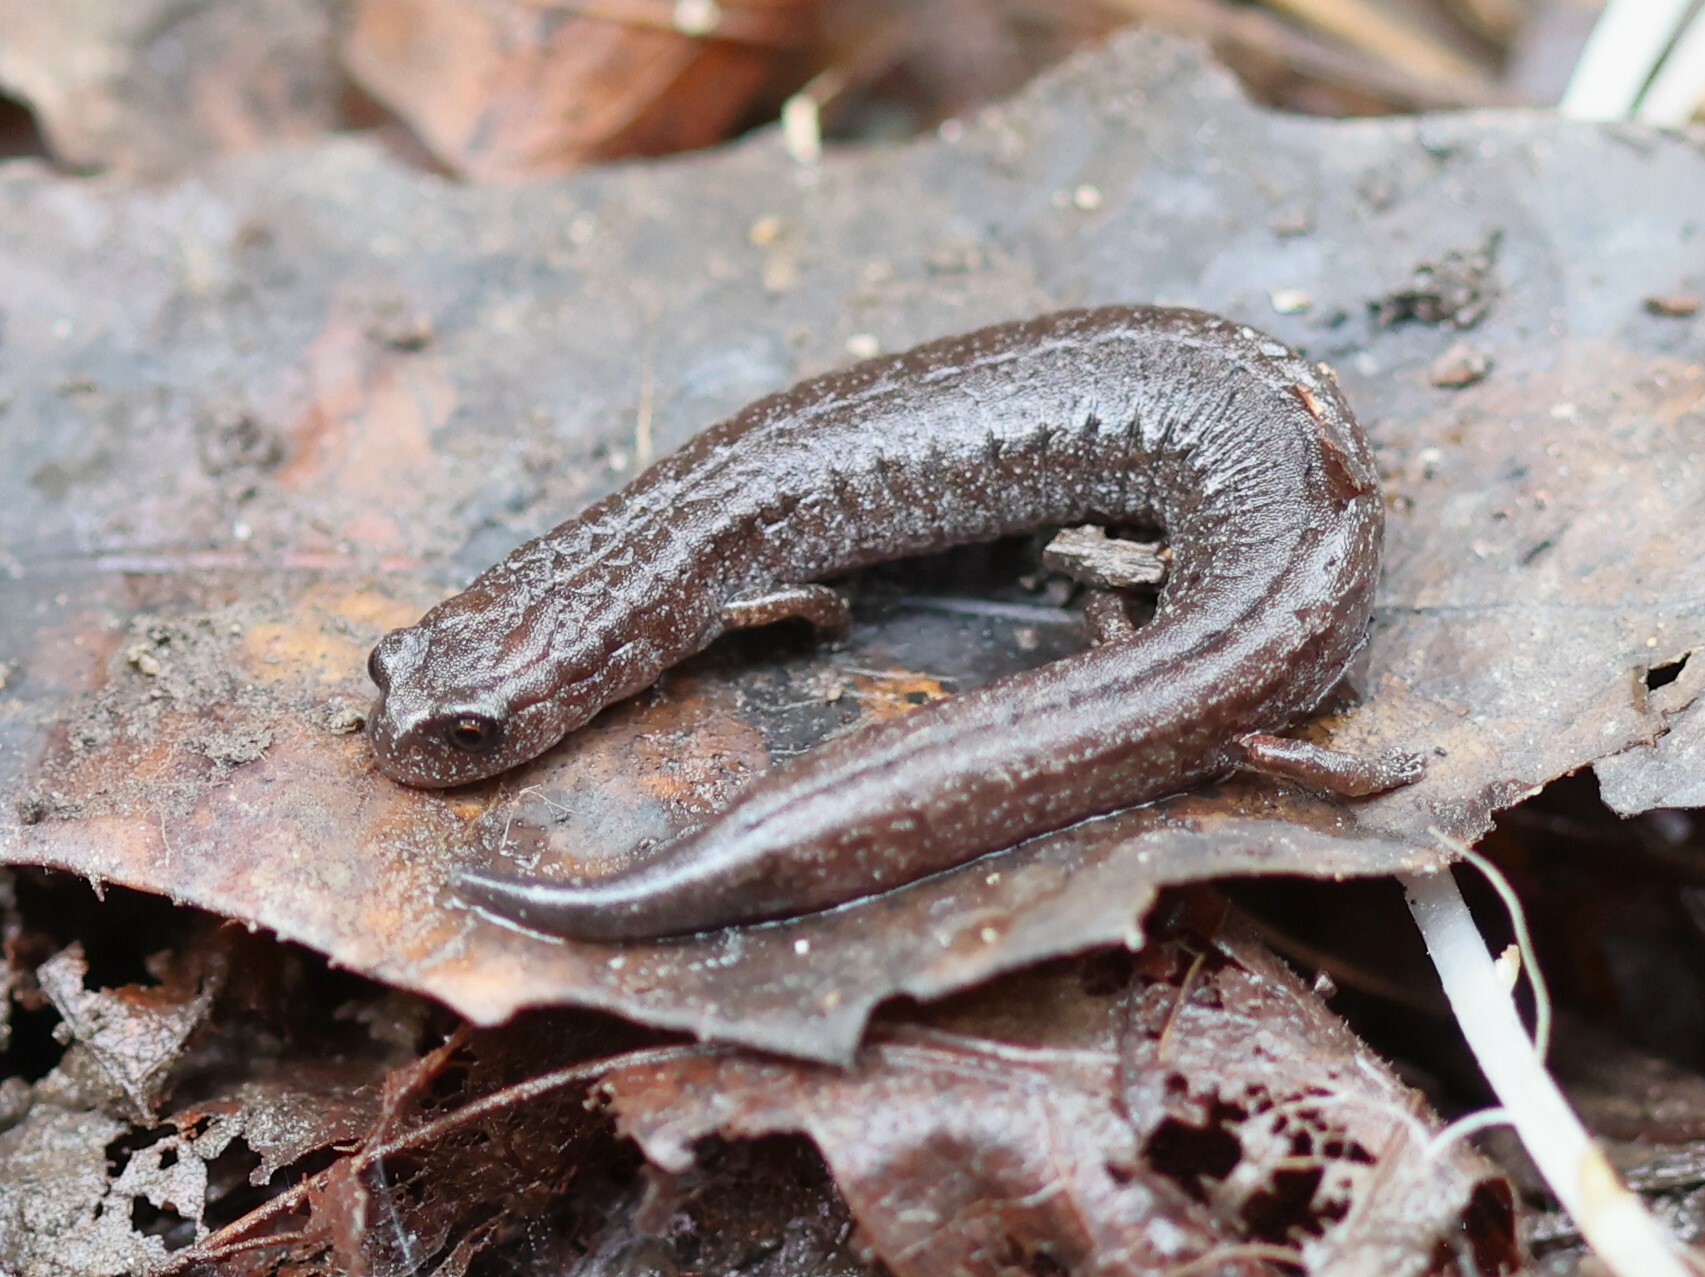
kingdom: Animalia
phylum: Chordata
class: Amphibia
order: Caudata
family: Plethodontidae
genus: Batrachoseps
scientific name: Batrachoseps gavilanensis
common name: Gabilan mountains slender salamander
